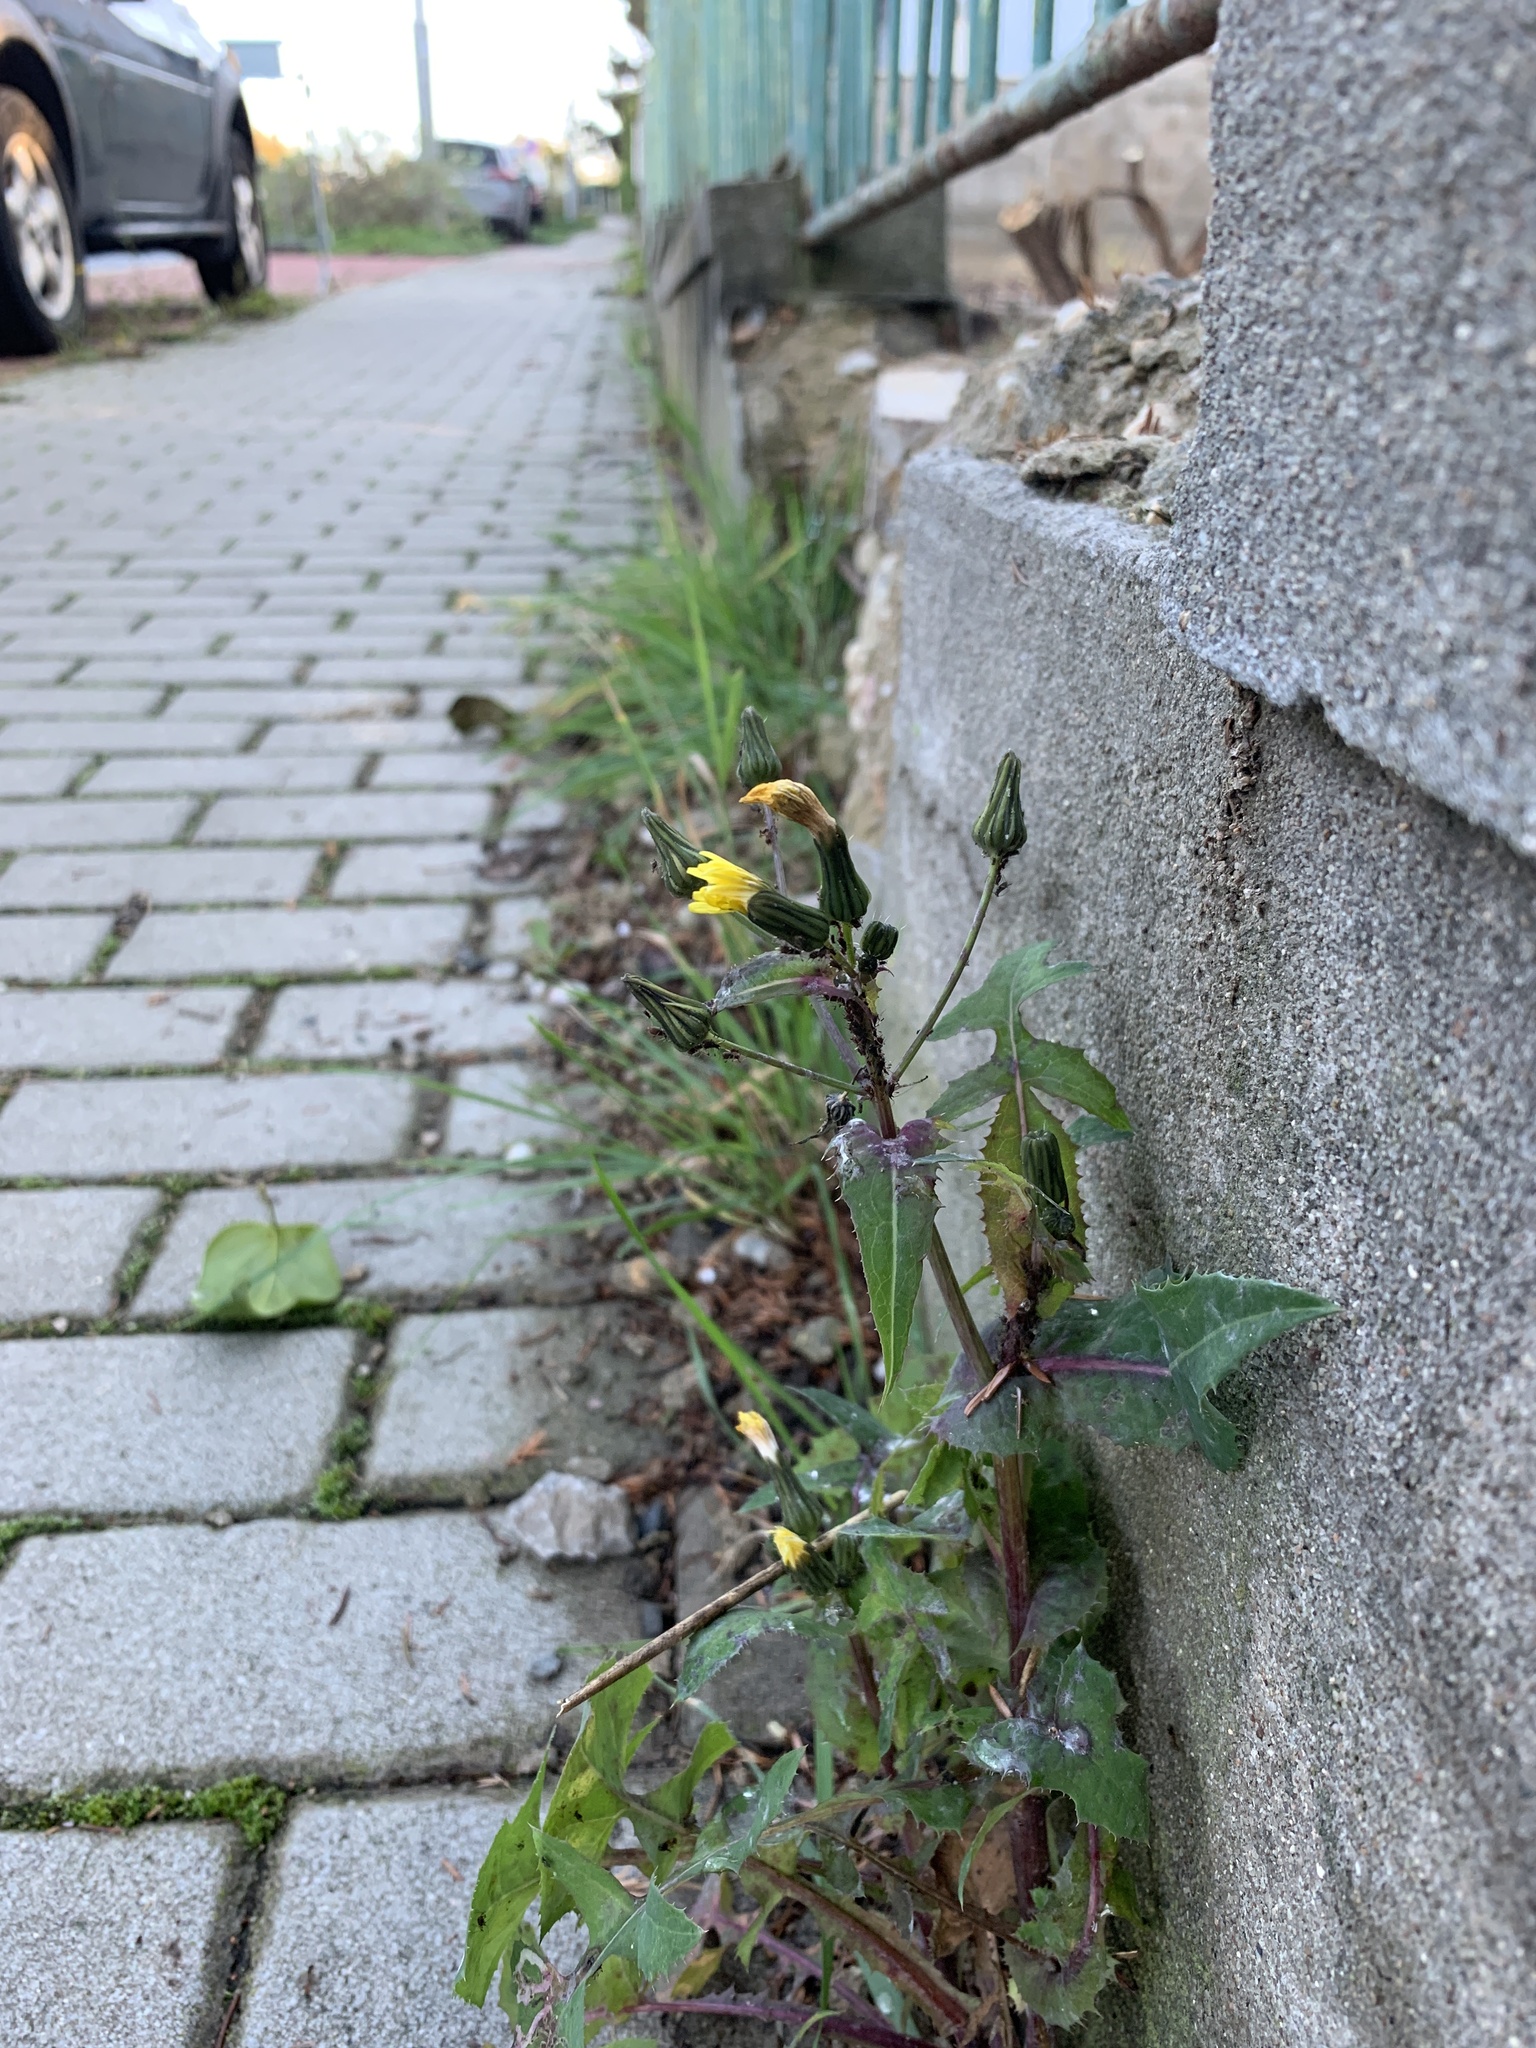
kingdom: Plantae
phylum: Tracheophyta
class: Magnoliopsida
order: Asterales
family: Asteraceae
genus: Sonchus
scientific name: Sonchus oleraceus
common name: Common sowthistle
